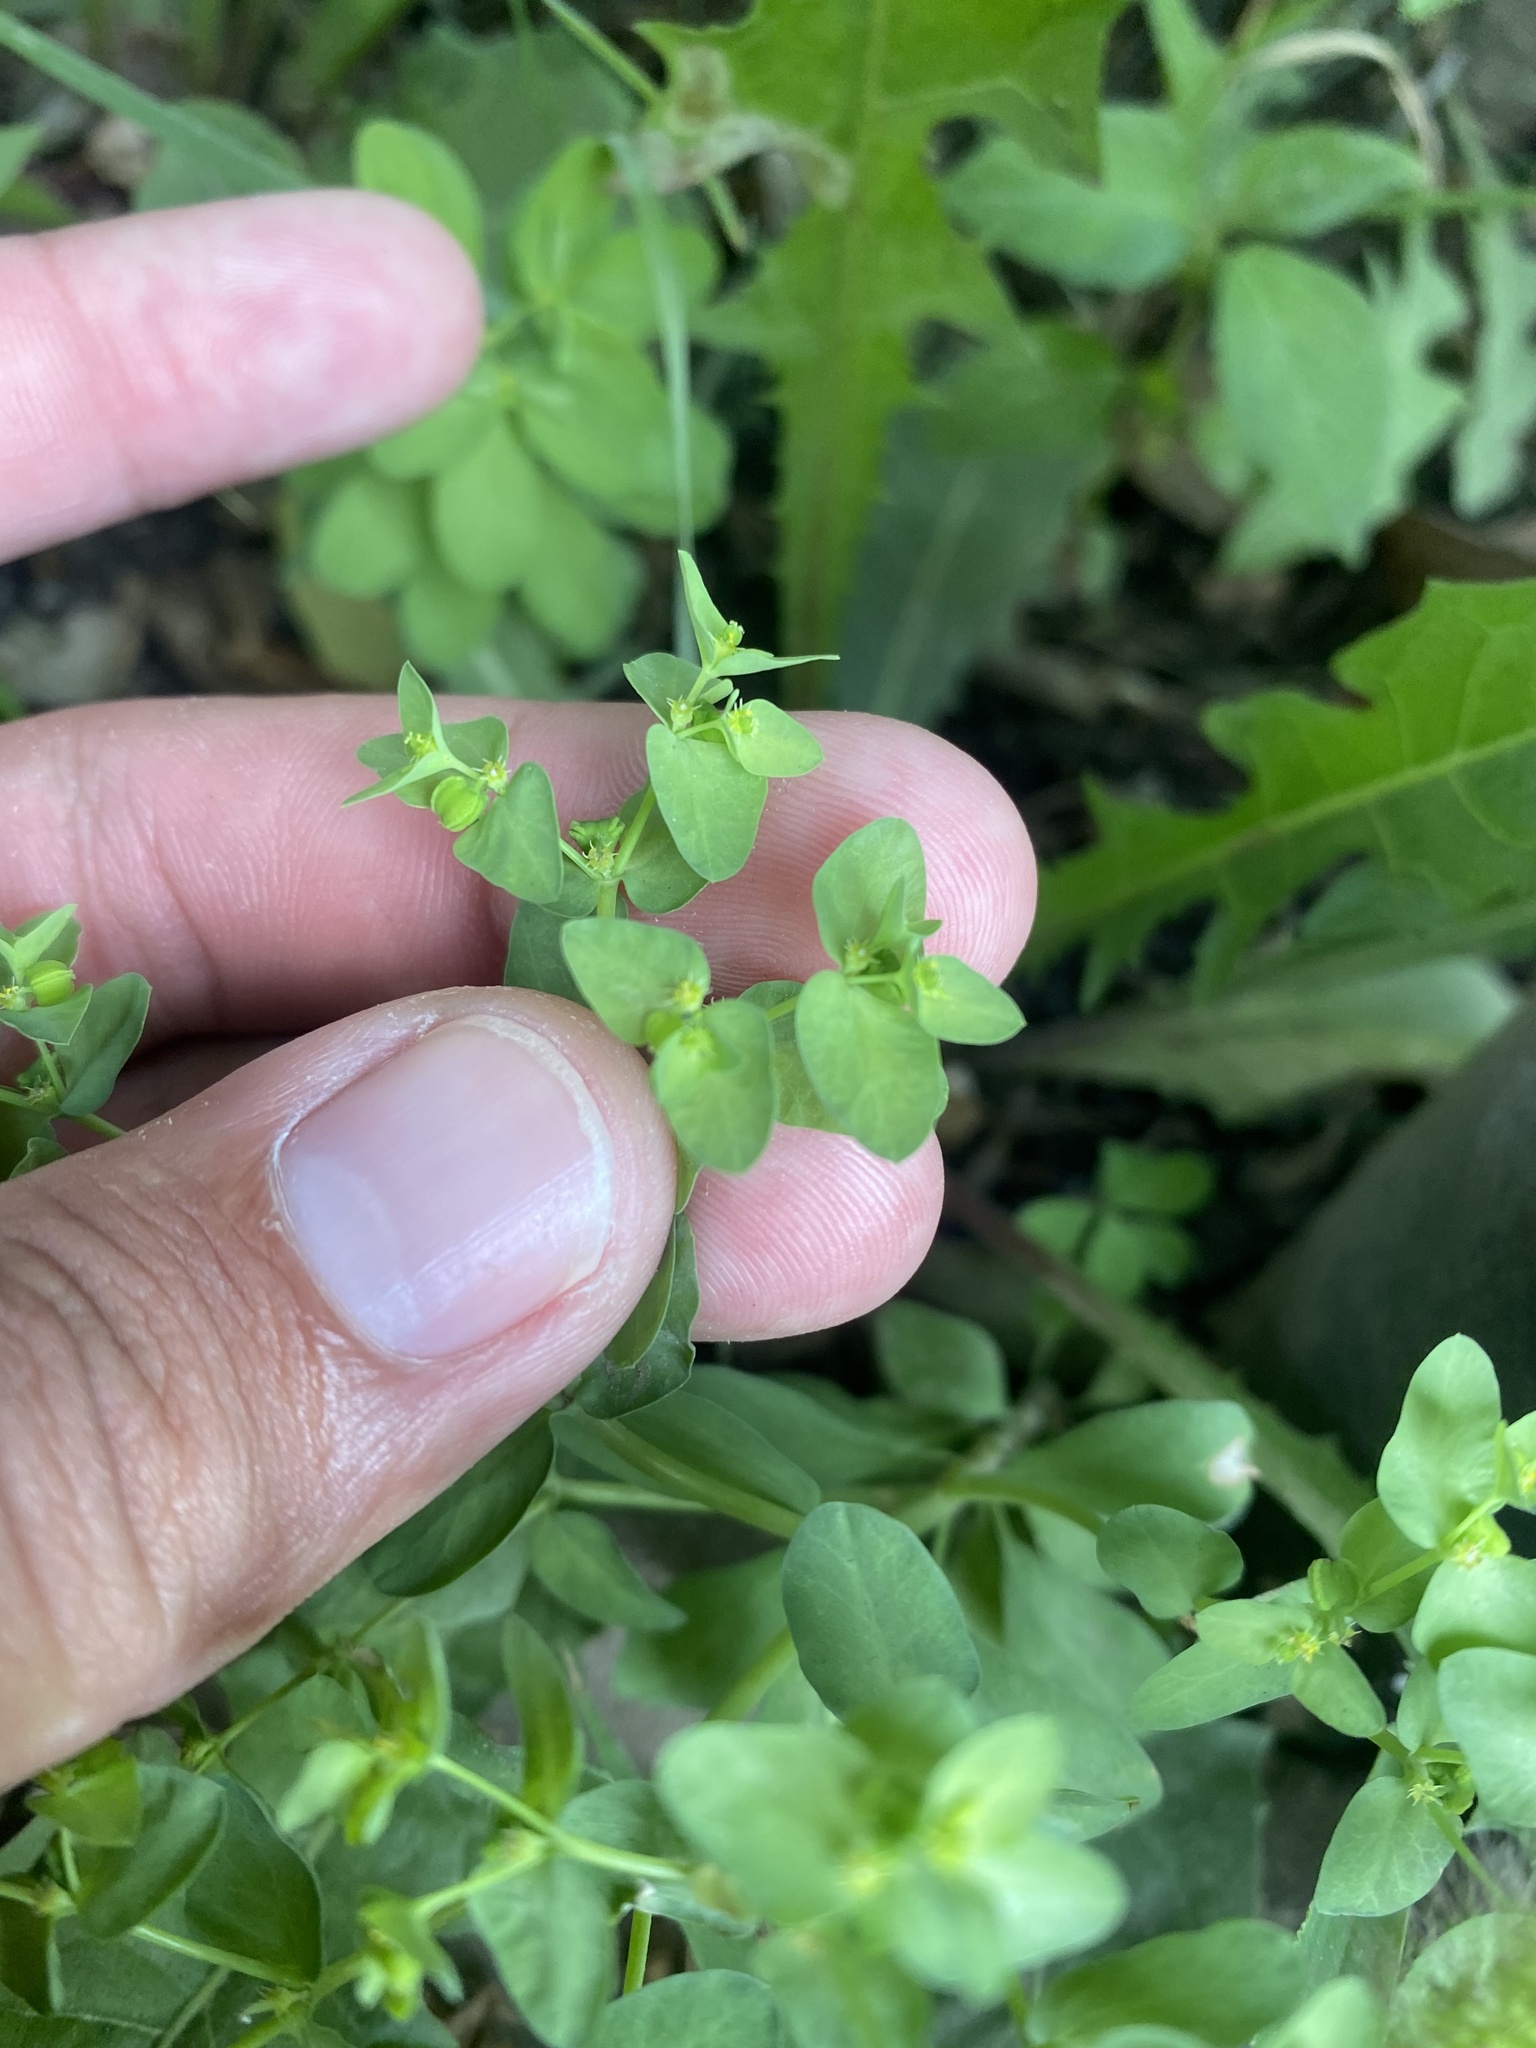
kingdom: Plantae
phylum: Tracheophyta
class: Magnoliopsida
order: Malpighiales
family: Euphorbiaceae
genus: Euphorbia
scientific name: Euphorbia peplus
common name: Petty spurge
